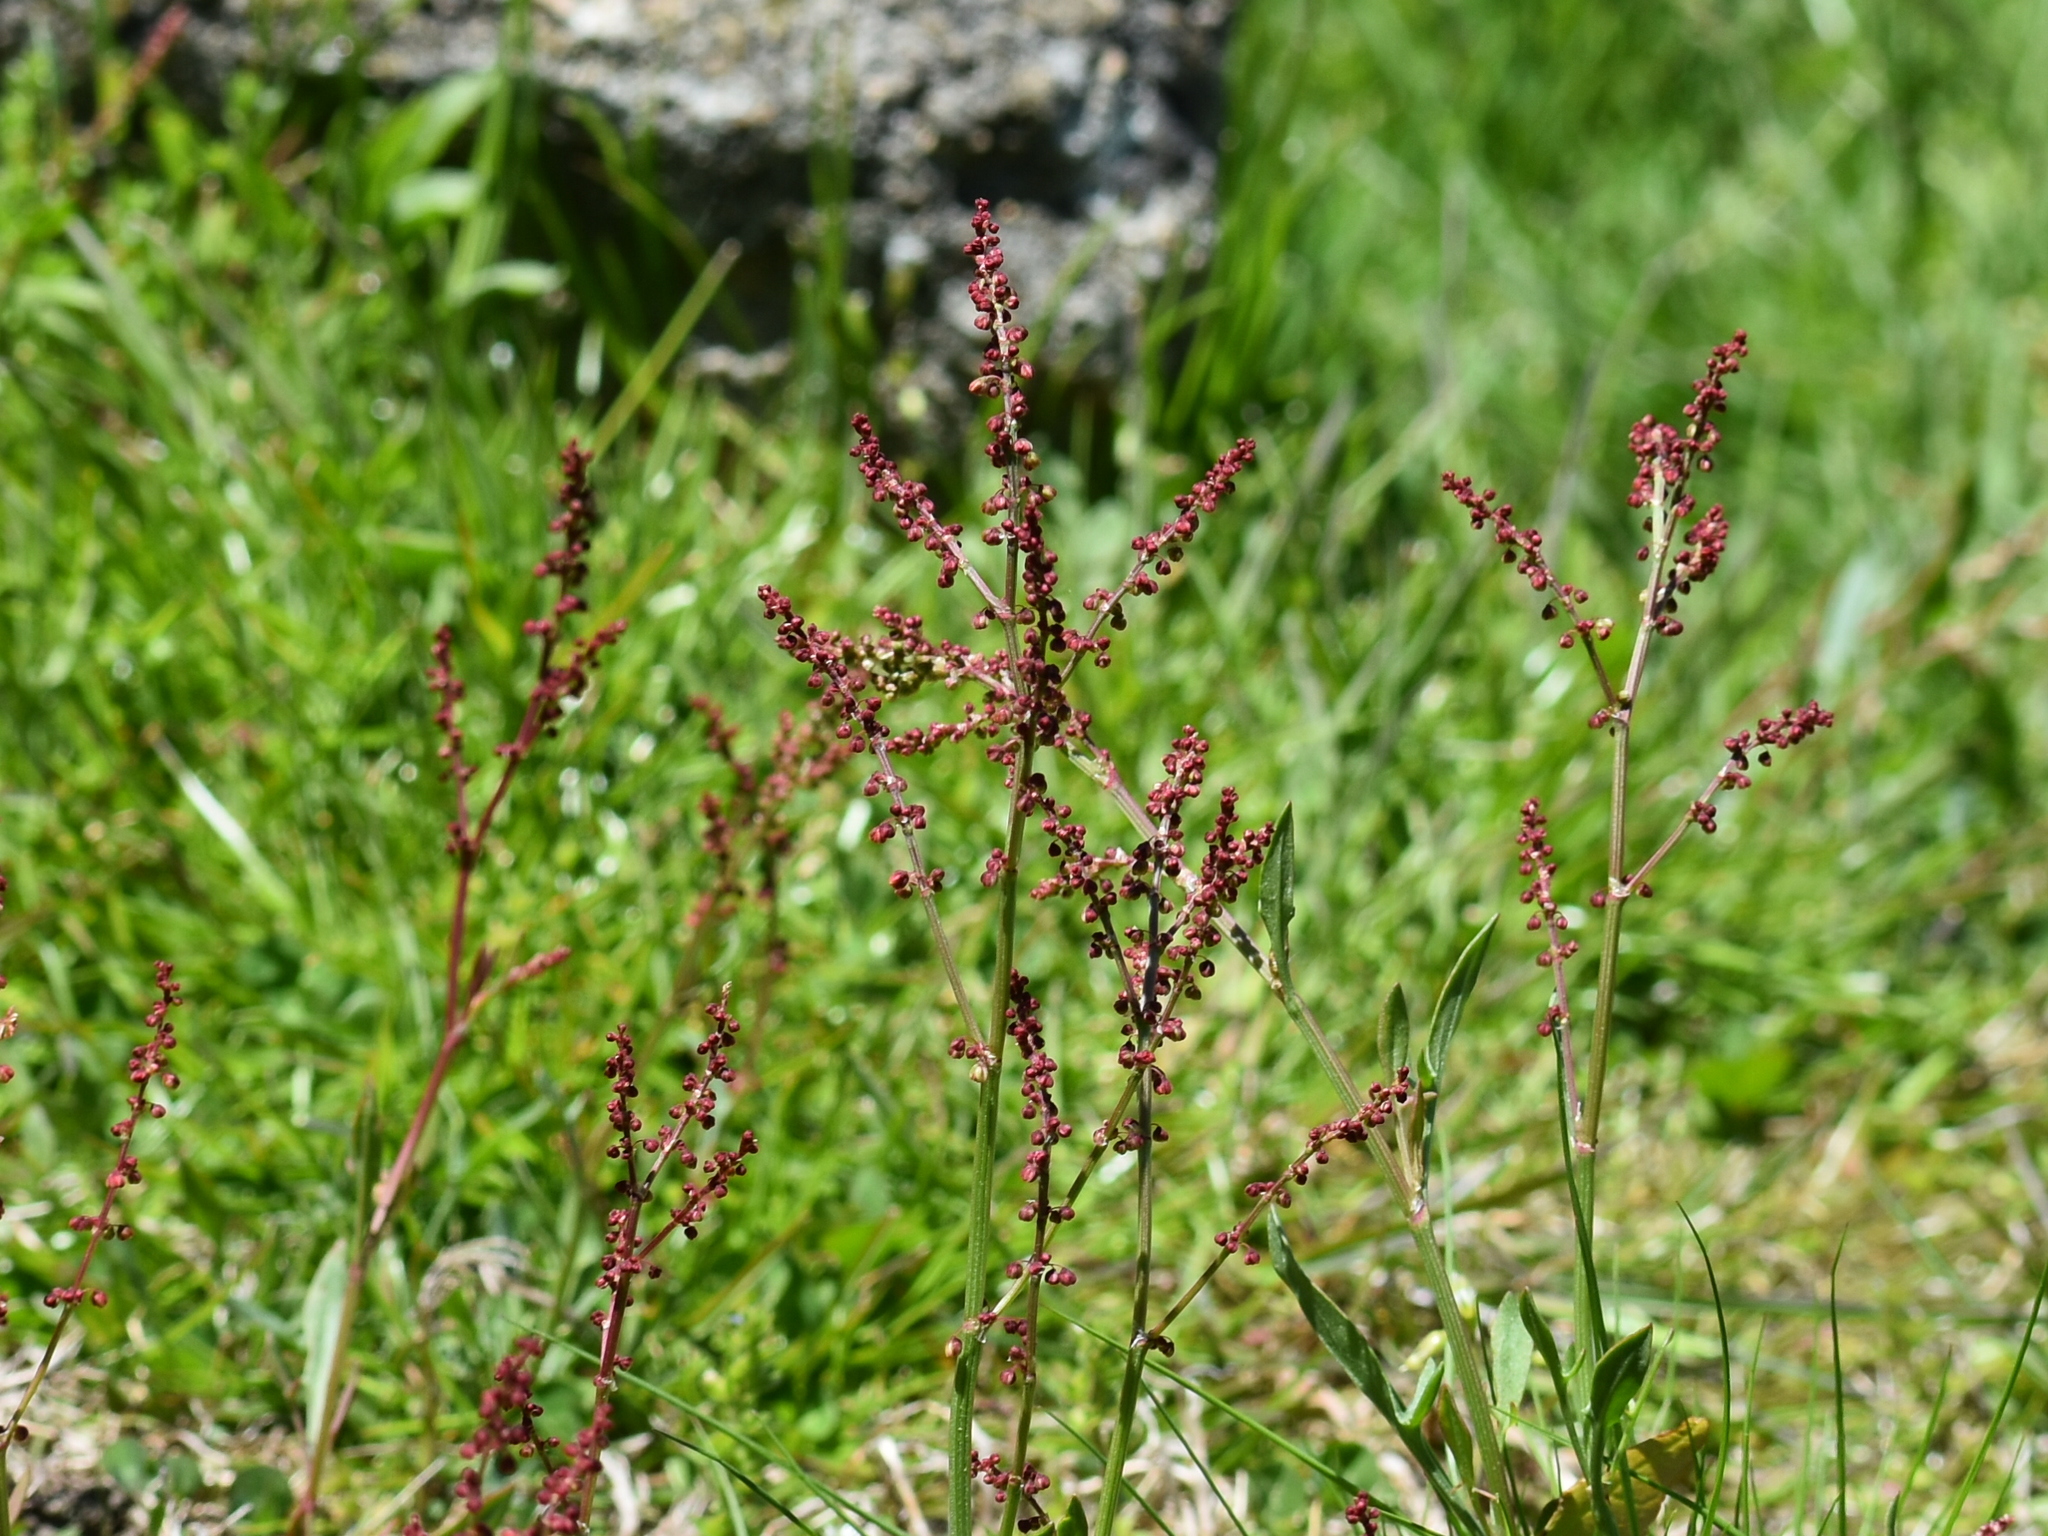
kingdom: Plantae
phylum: Tracheophyta
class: Magnoliopsida
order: Caryophyllales
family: Polygonaceae
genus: Rumex
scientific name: Rumex acetosella
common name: Common sheep sorrel
